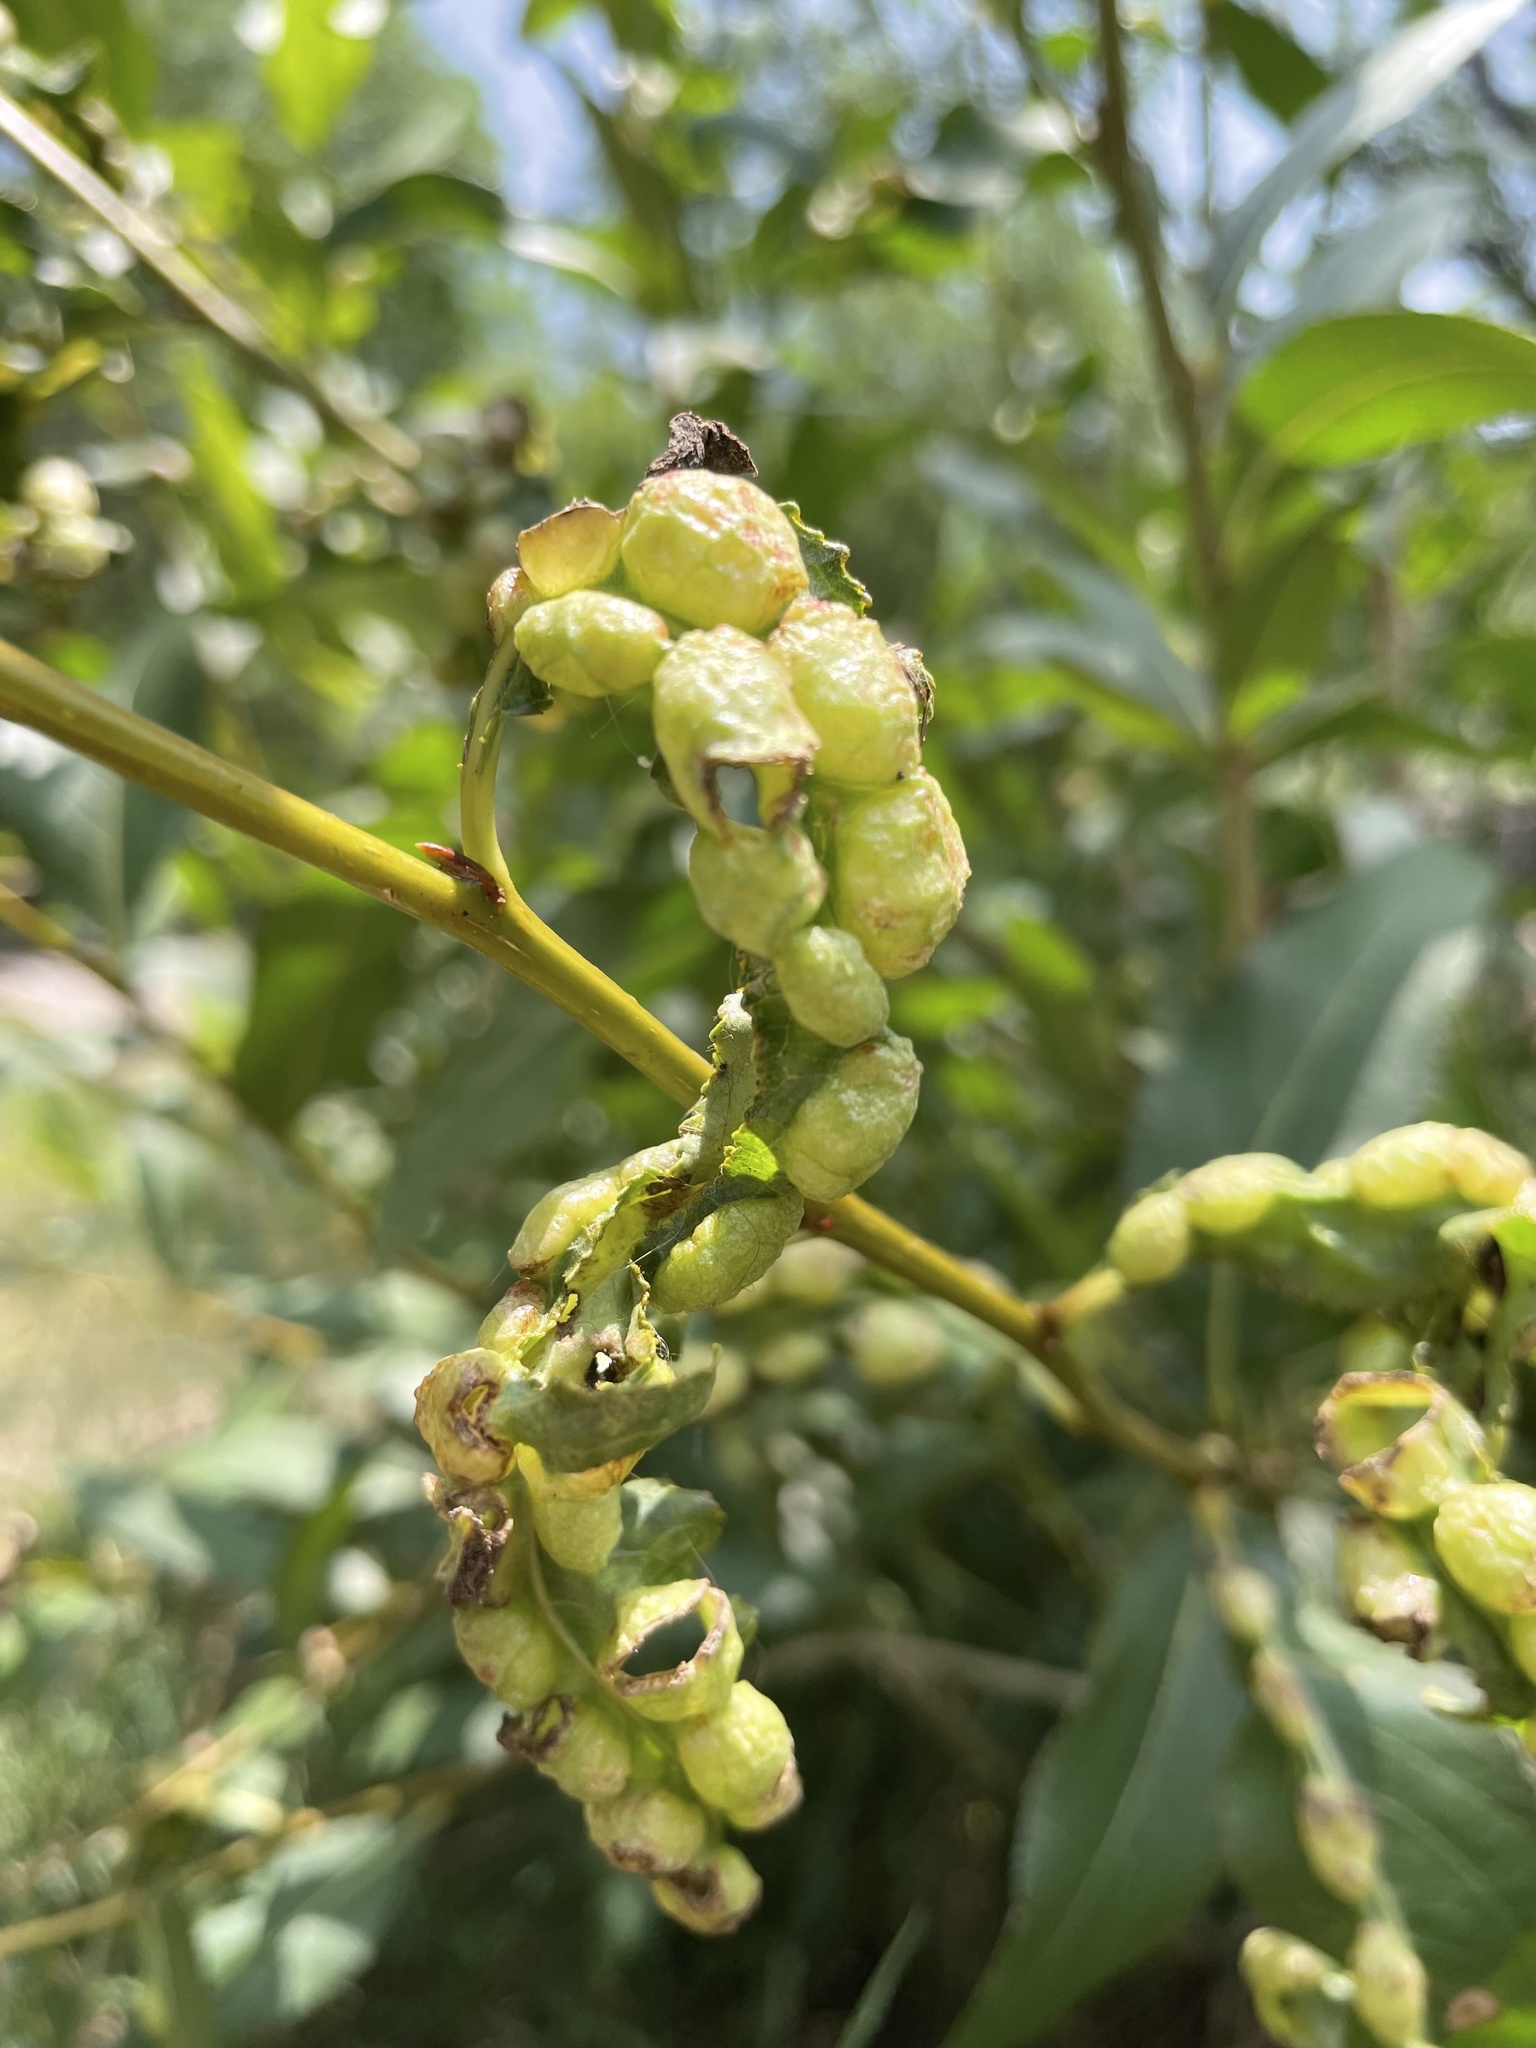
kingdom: Animalia
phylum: Arthropoda
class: Insecta
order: Hemiptera
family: Aphididae
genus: Thecabius
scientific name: Thecabius populimonilis
